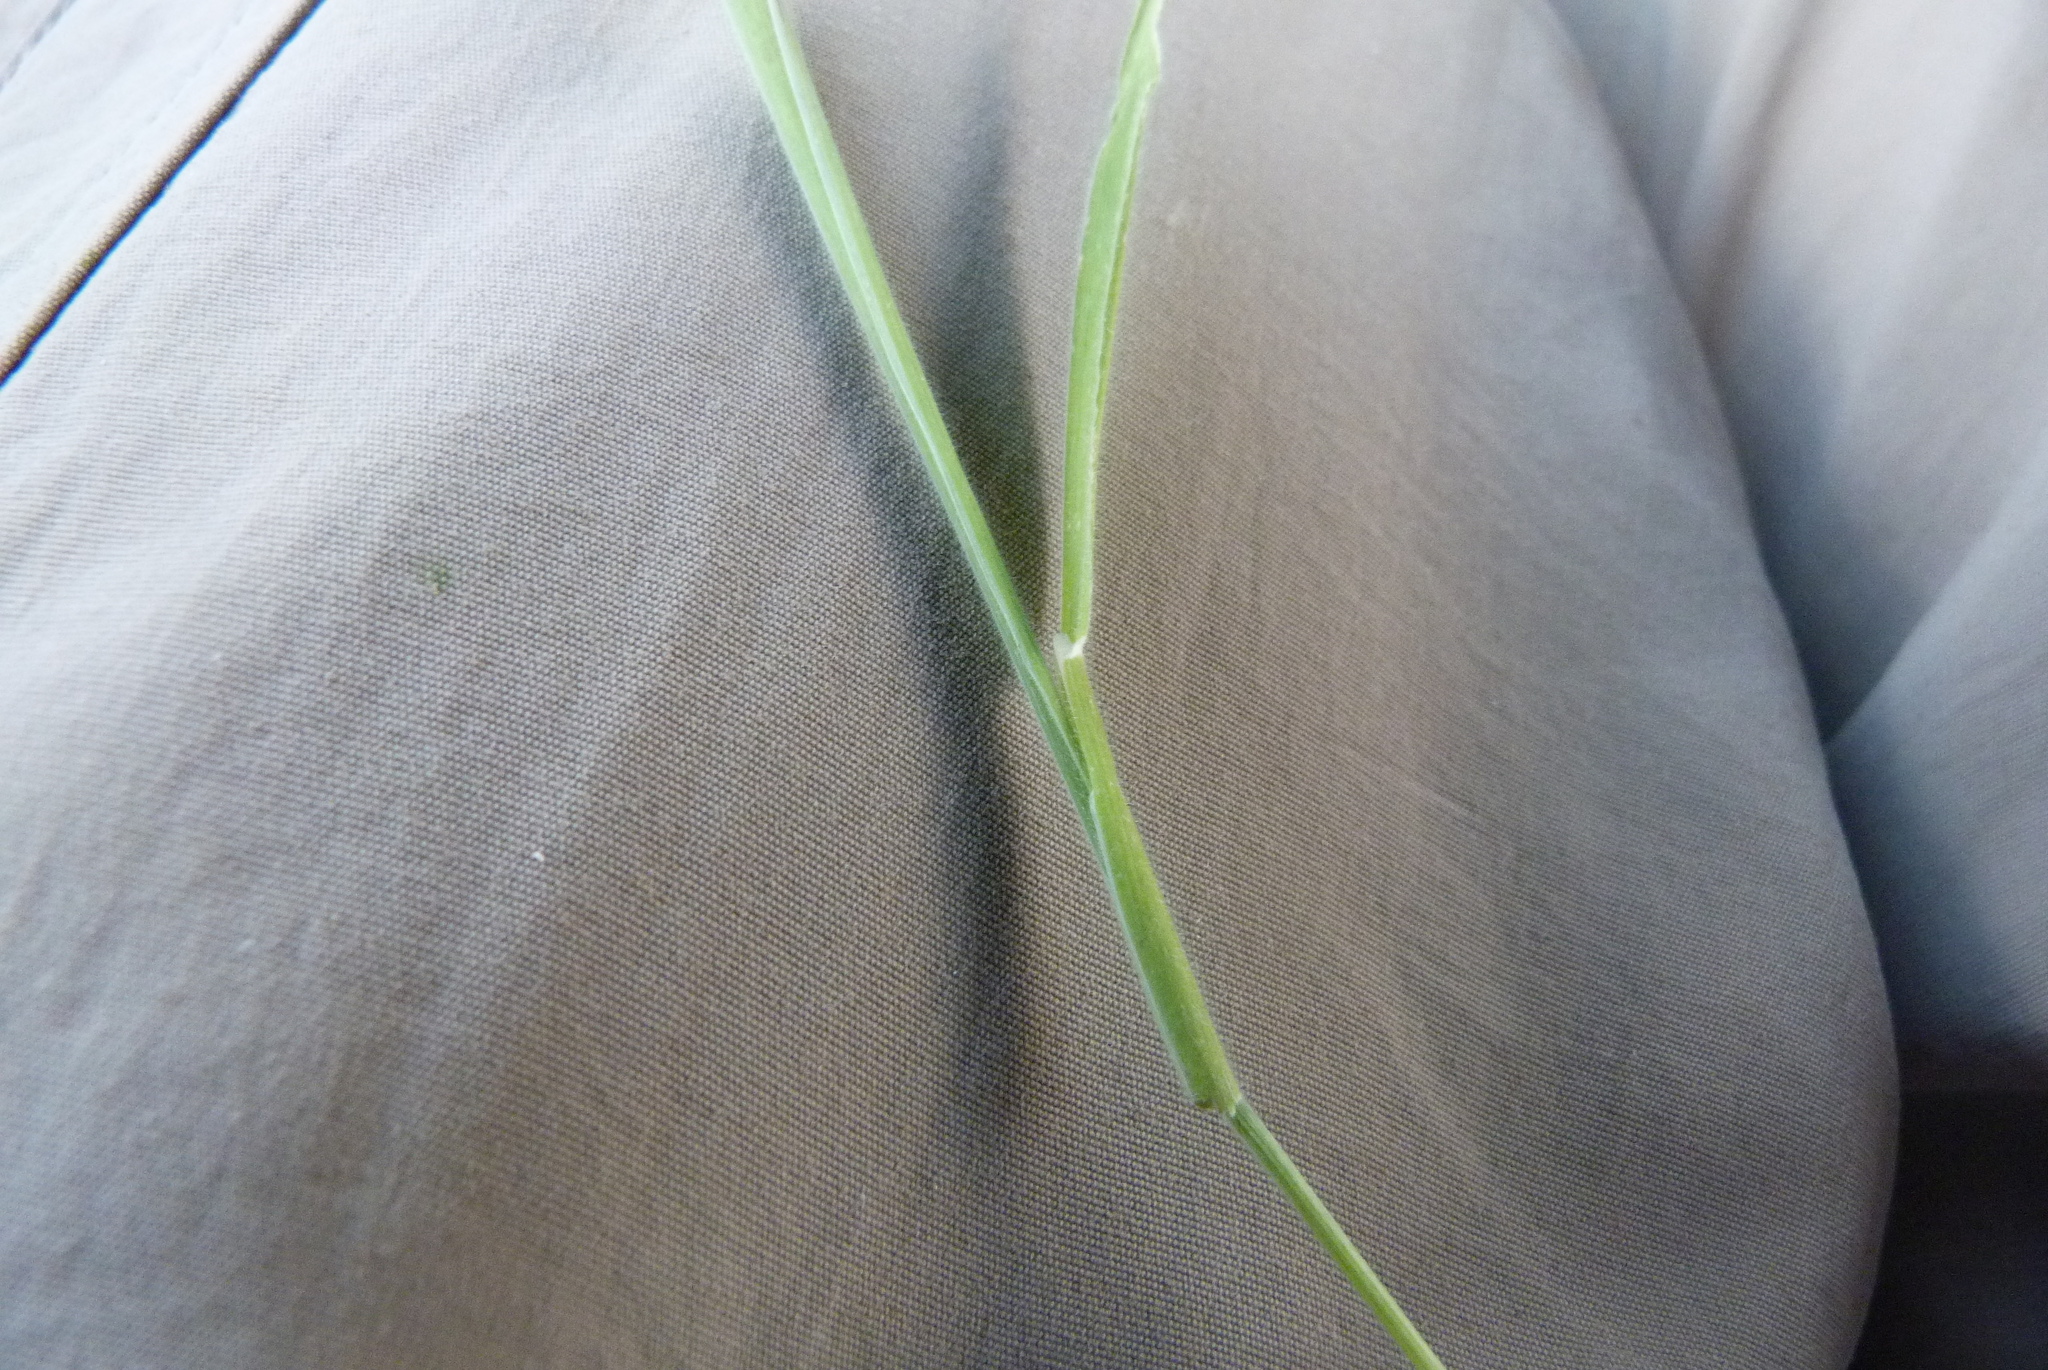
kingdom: Plantae
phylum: Tracheophyta
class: Liliopsida
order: Poales
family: Poaceae
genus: Holcus
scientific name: Holcus lanatus
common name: Yorkshire-fog
